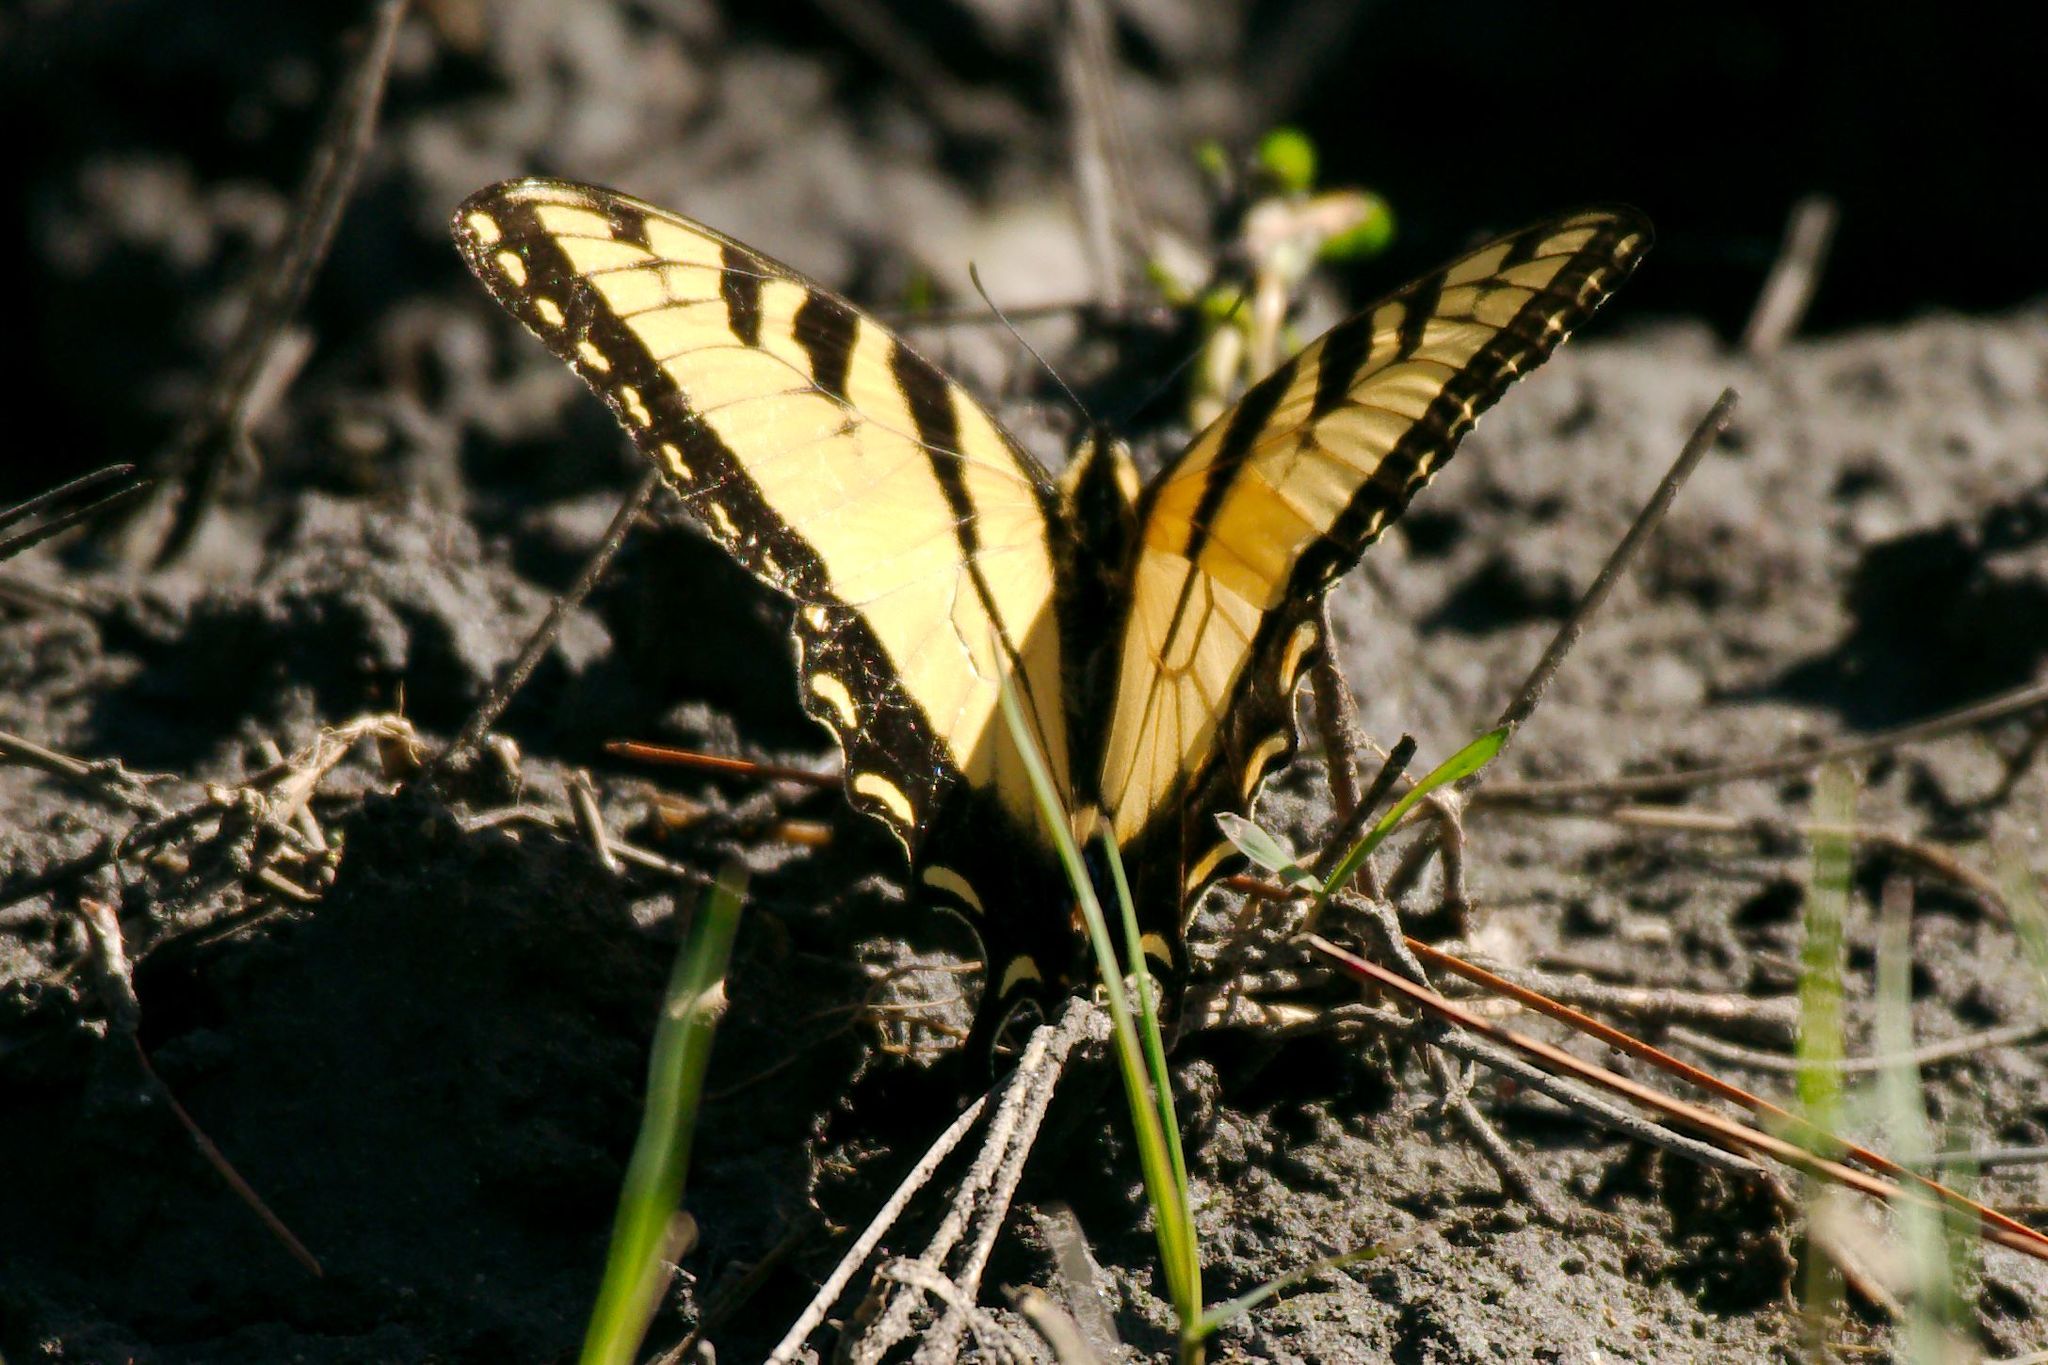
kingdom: Animalia
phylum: Arthropoda
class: Insecta
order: Lepidoptera
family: Papilionidae
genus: Papilio
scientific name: Papilio glaucus
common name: Tiger swallowtail
